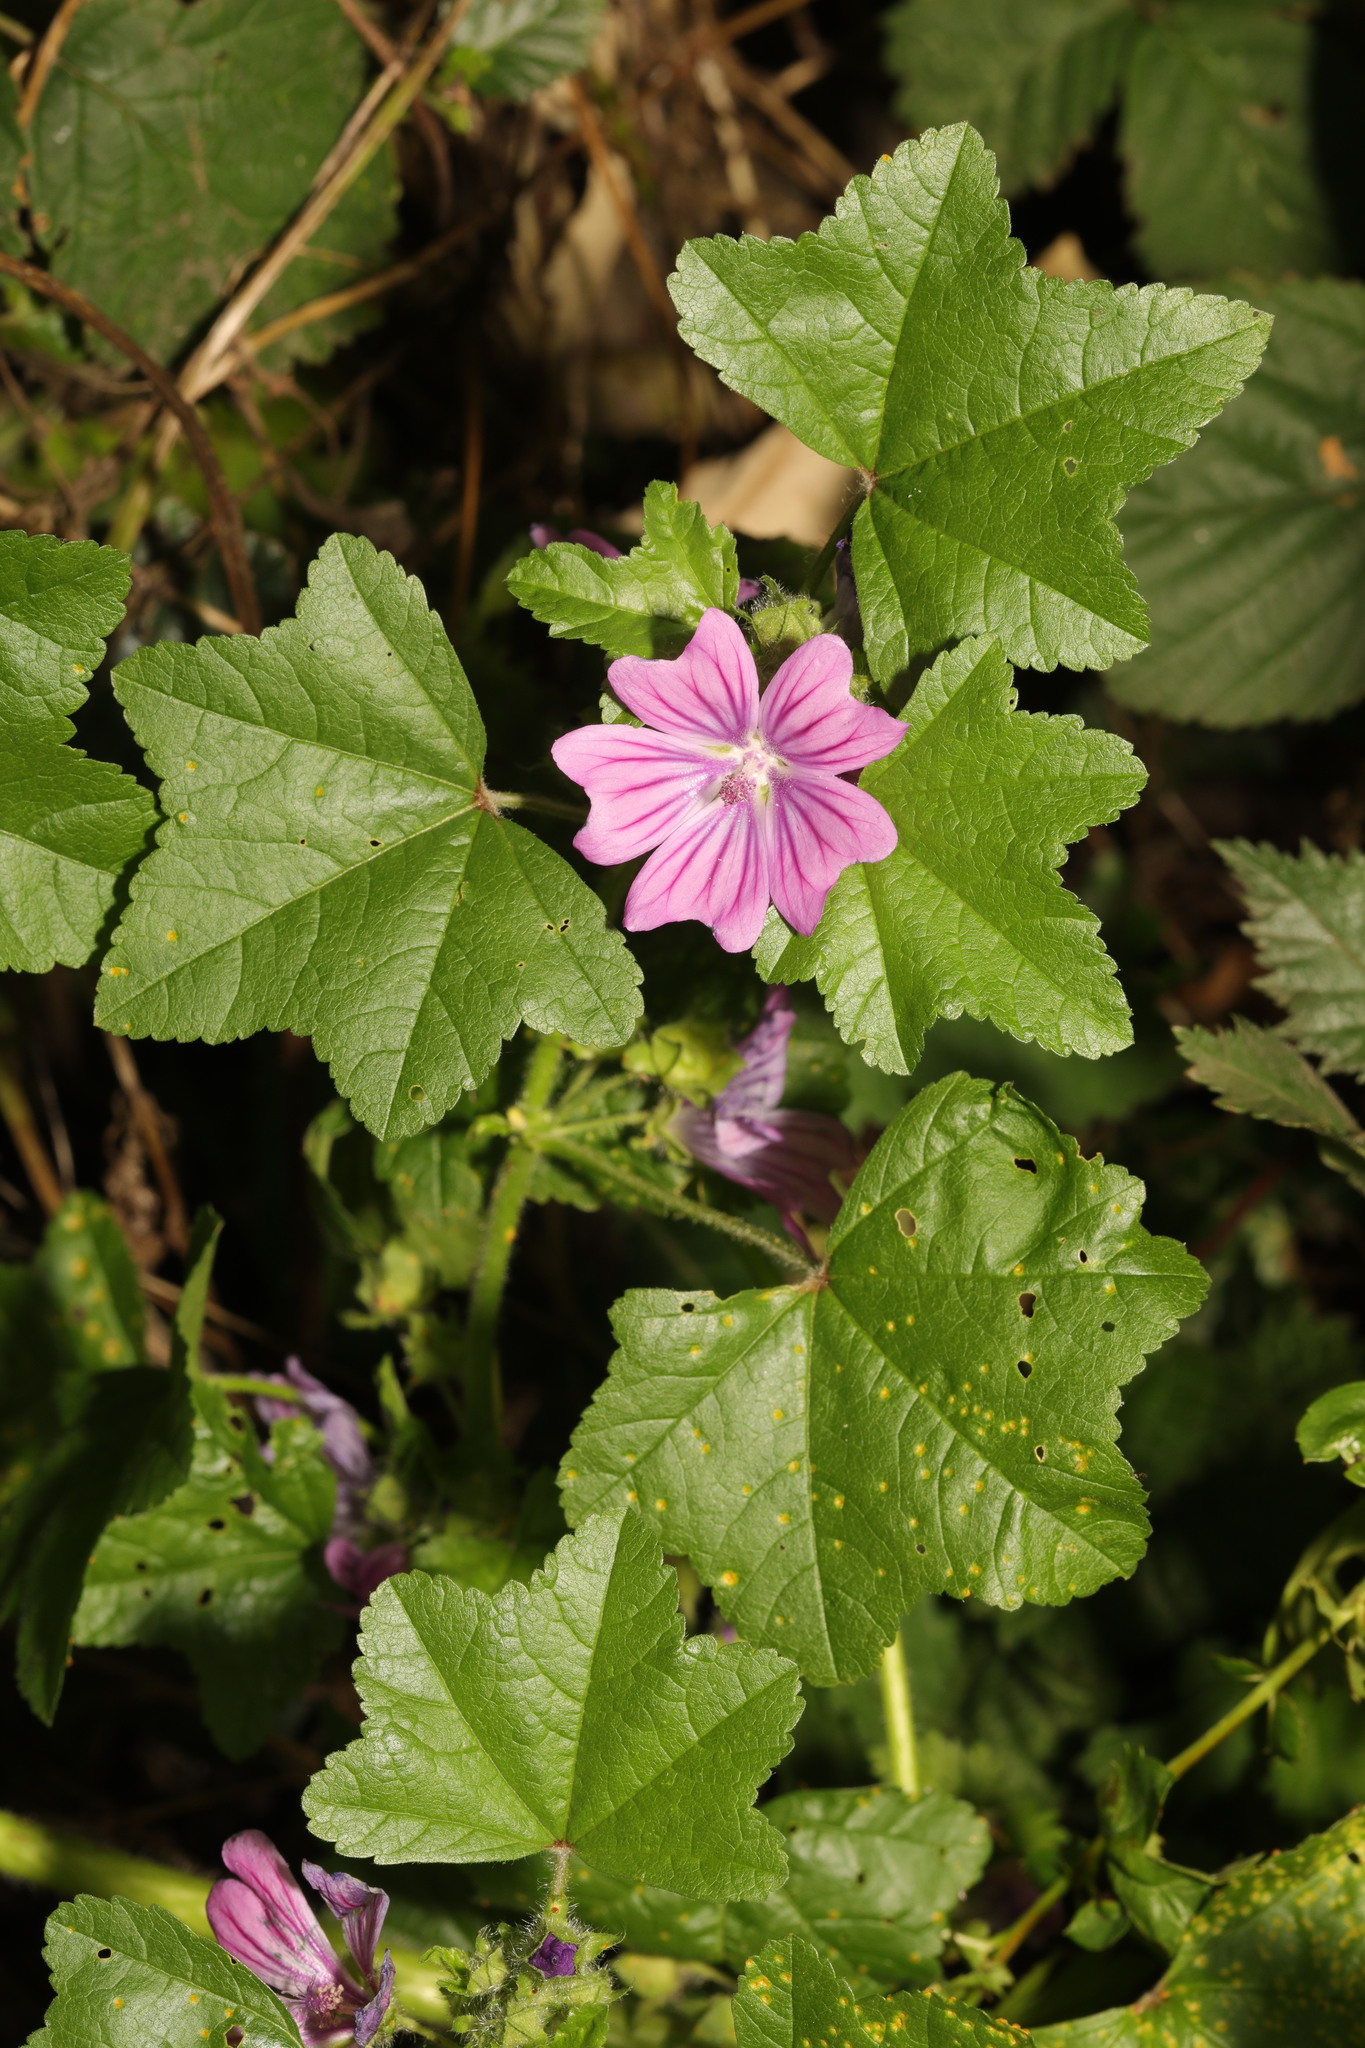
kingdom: Plantae
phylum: Tracheophyta
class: Magnoliopsida
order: Malvales
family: Malvaceae
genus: Malva
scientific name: Malva sylvestris
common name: Common mallow
